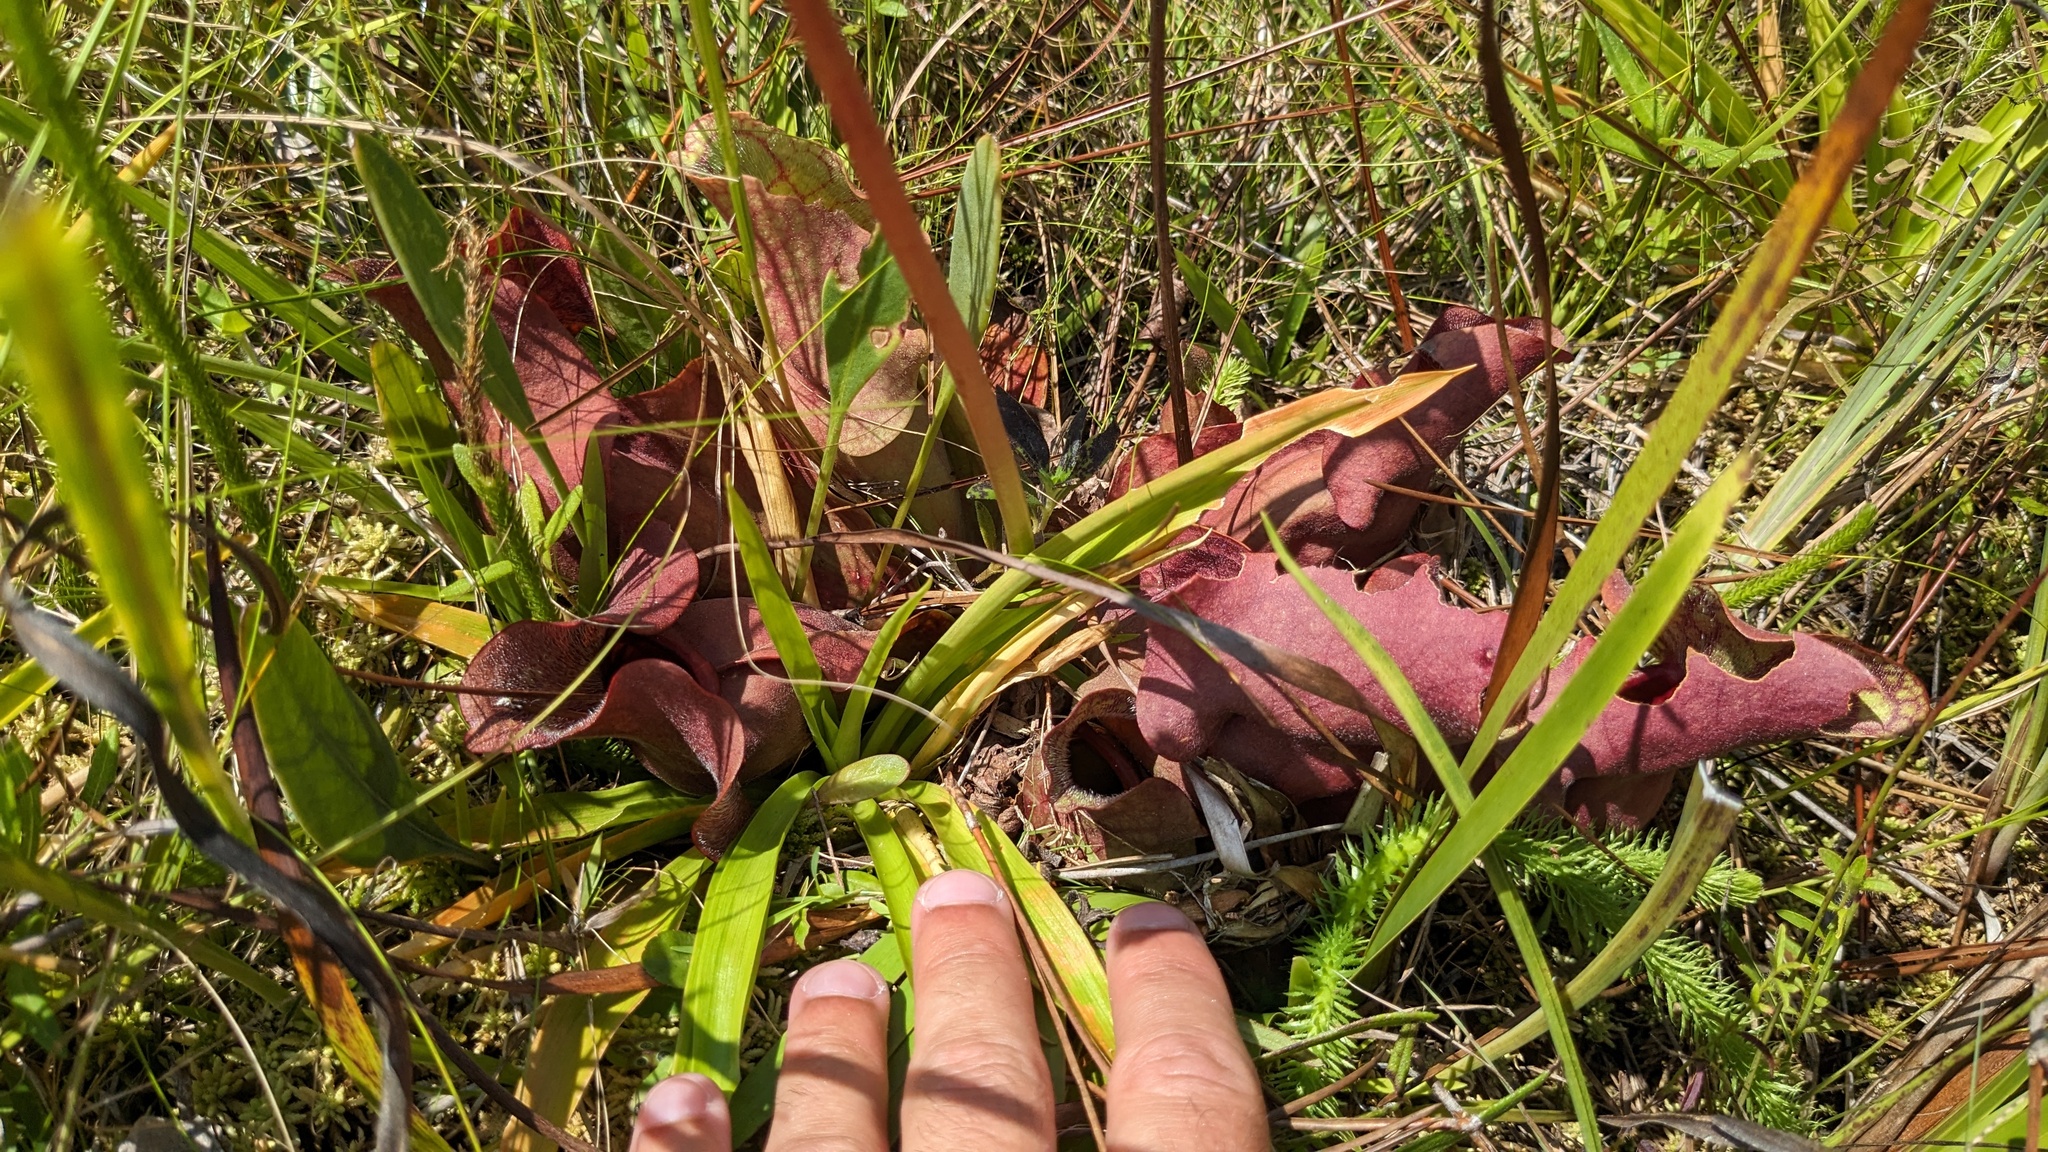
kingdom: Plantae
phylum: Tracheophyta
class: Magnoliopsida
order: Ericales
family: Sarraceniaceae
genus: Sarracenia
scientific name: Sarracenia rosea
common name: Pink pitcherplant
